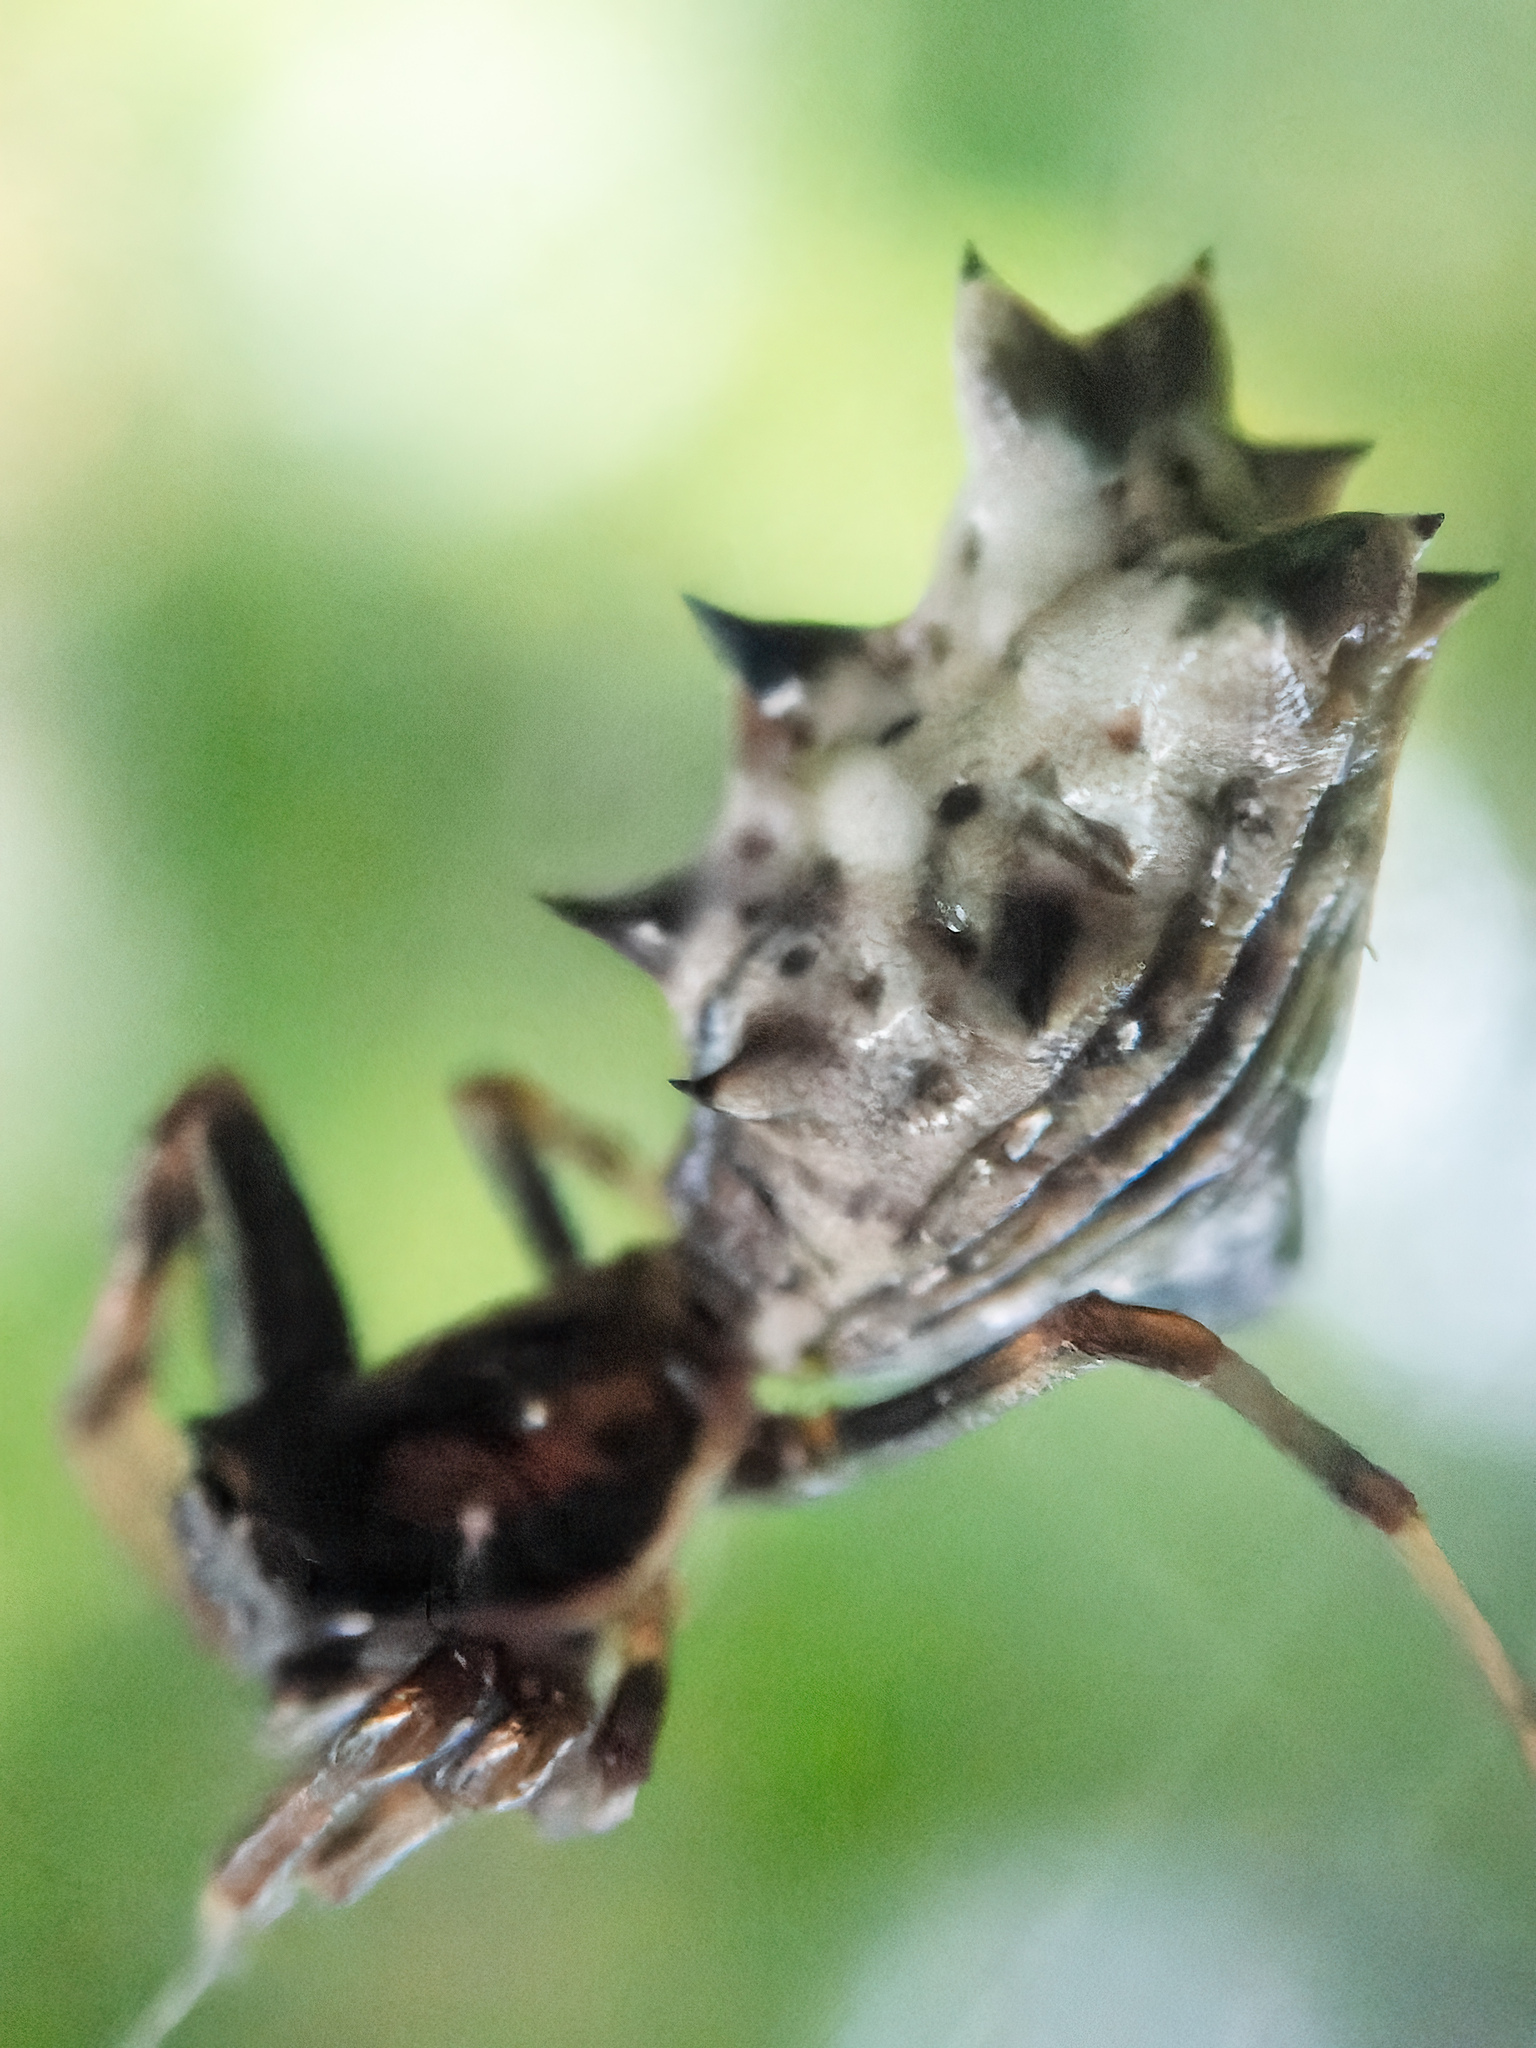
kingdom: Animalia
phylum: Arthropoda
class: Arachnida
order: Araneae
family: Araneidae
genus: Micrathena
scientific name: Micrathena gracilis
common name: Orb weavers
